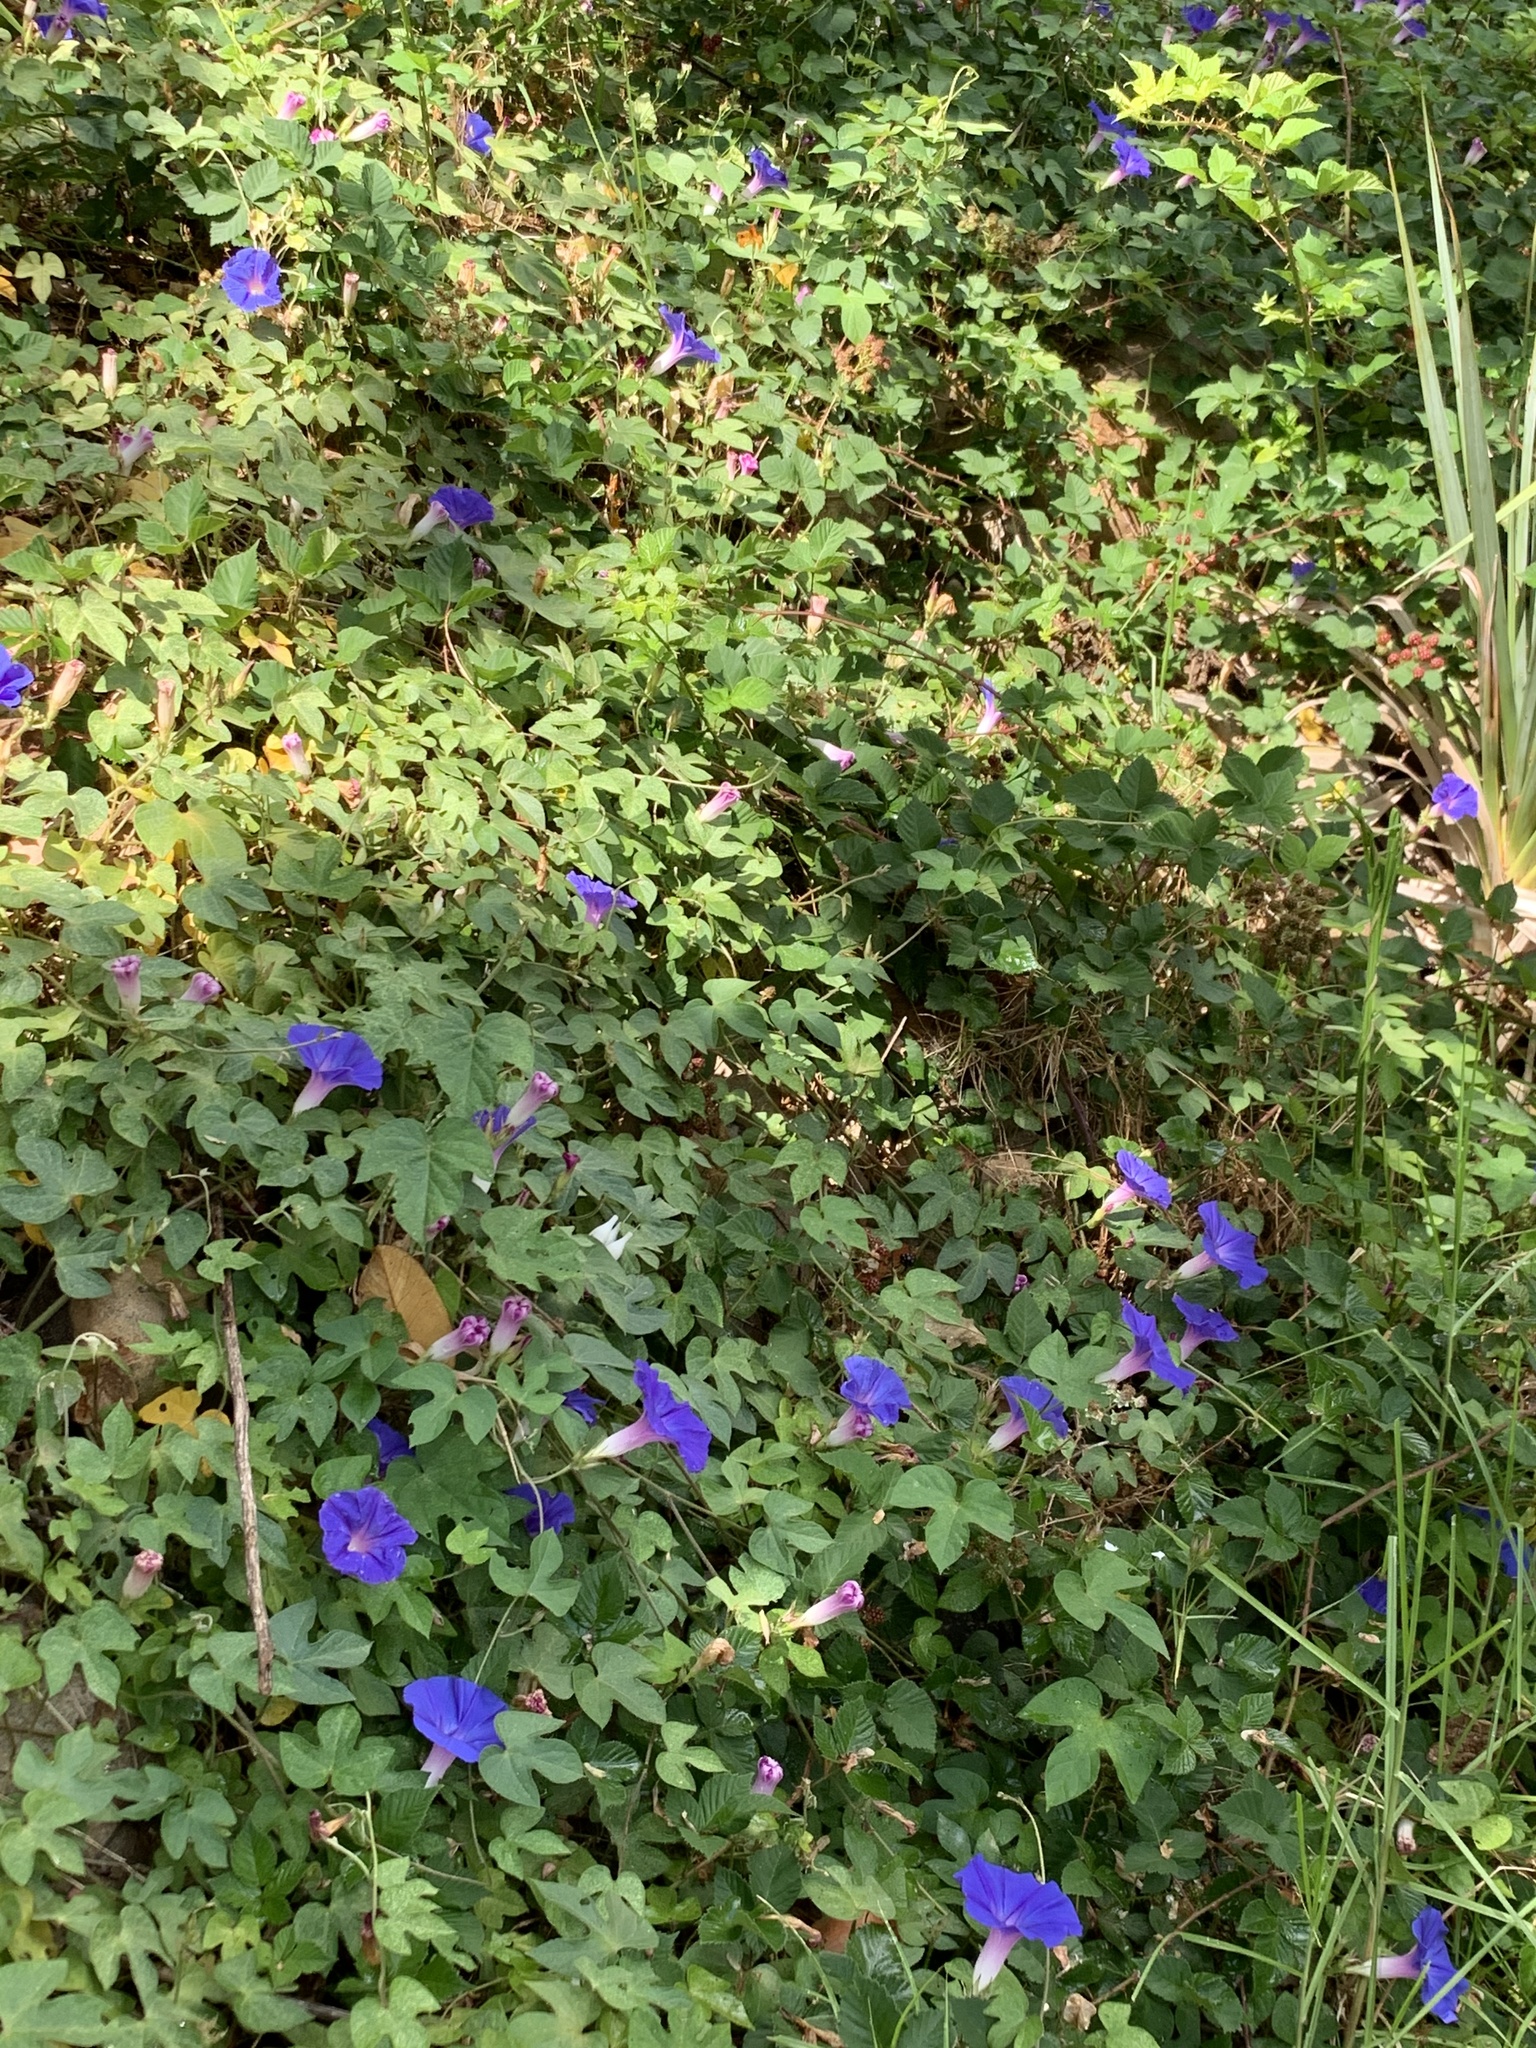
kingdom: Plantae
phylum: Tracheophyta
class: Magnoliopsida
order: Solanales
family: Convolvulaceae
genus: Ipomoea
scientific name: Ipomoea indica
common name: Blue dawnflower
